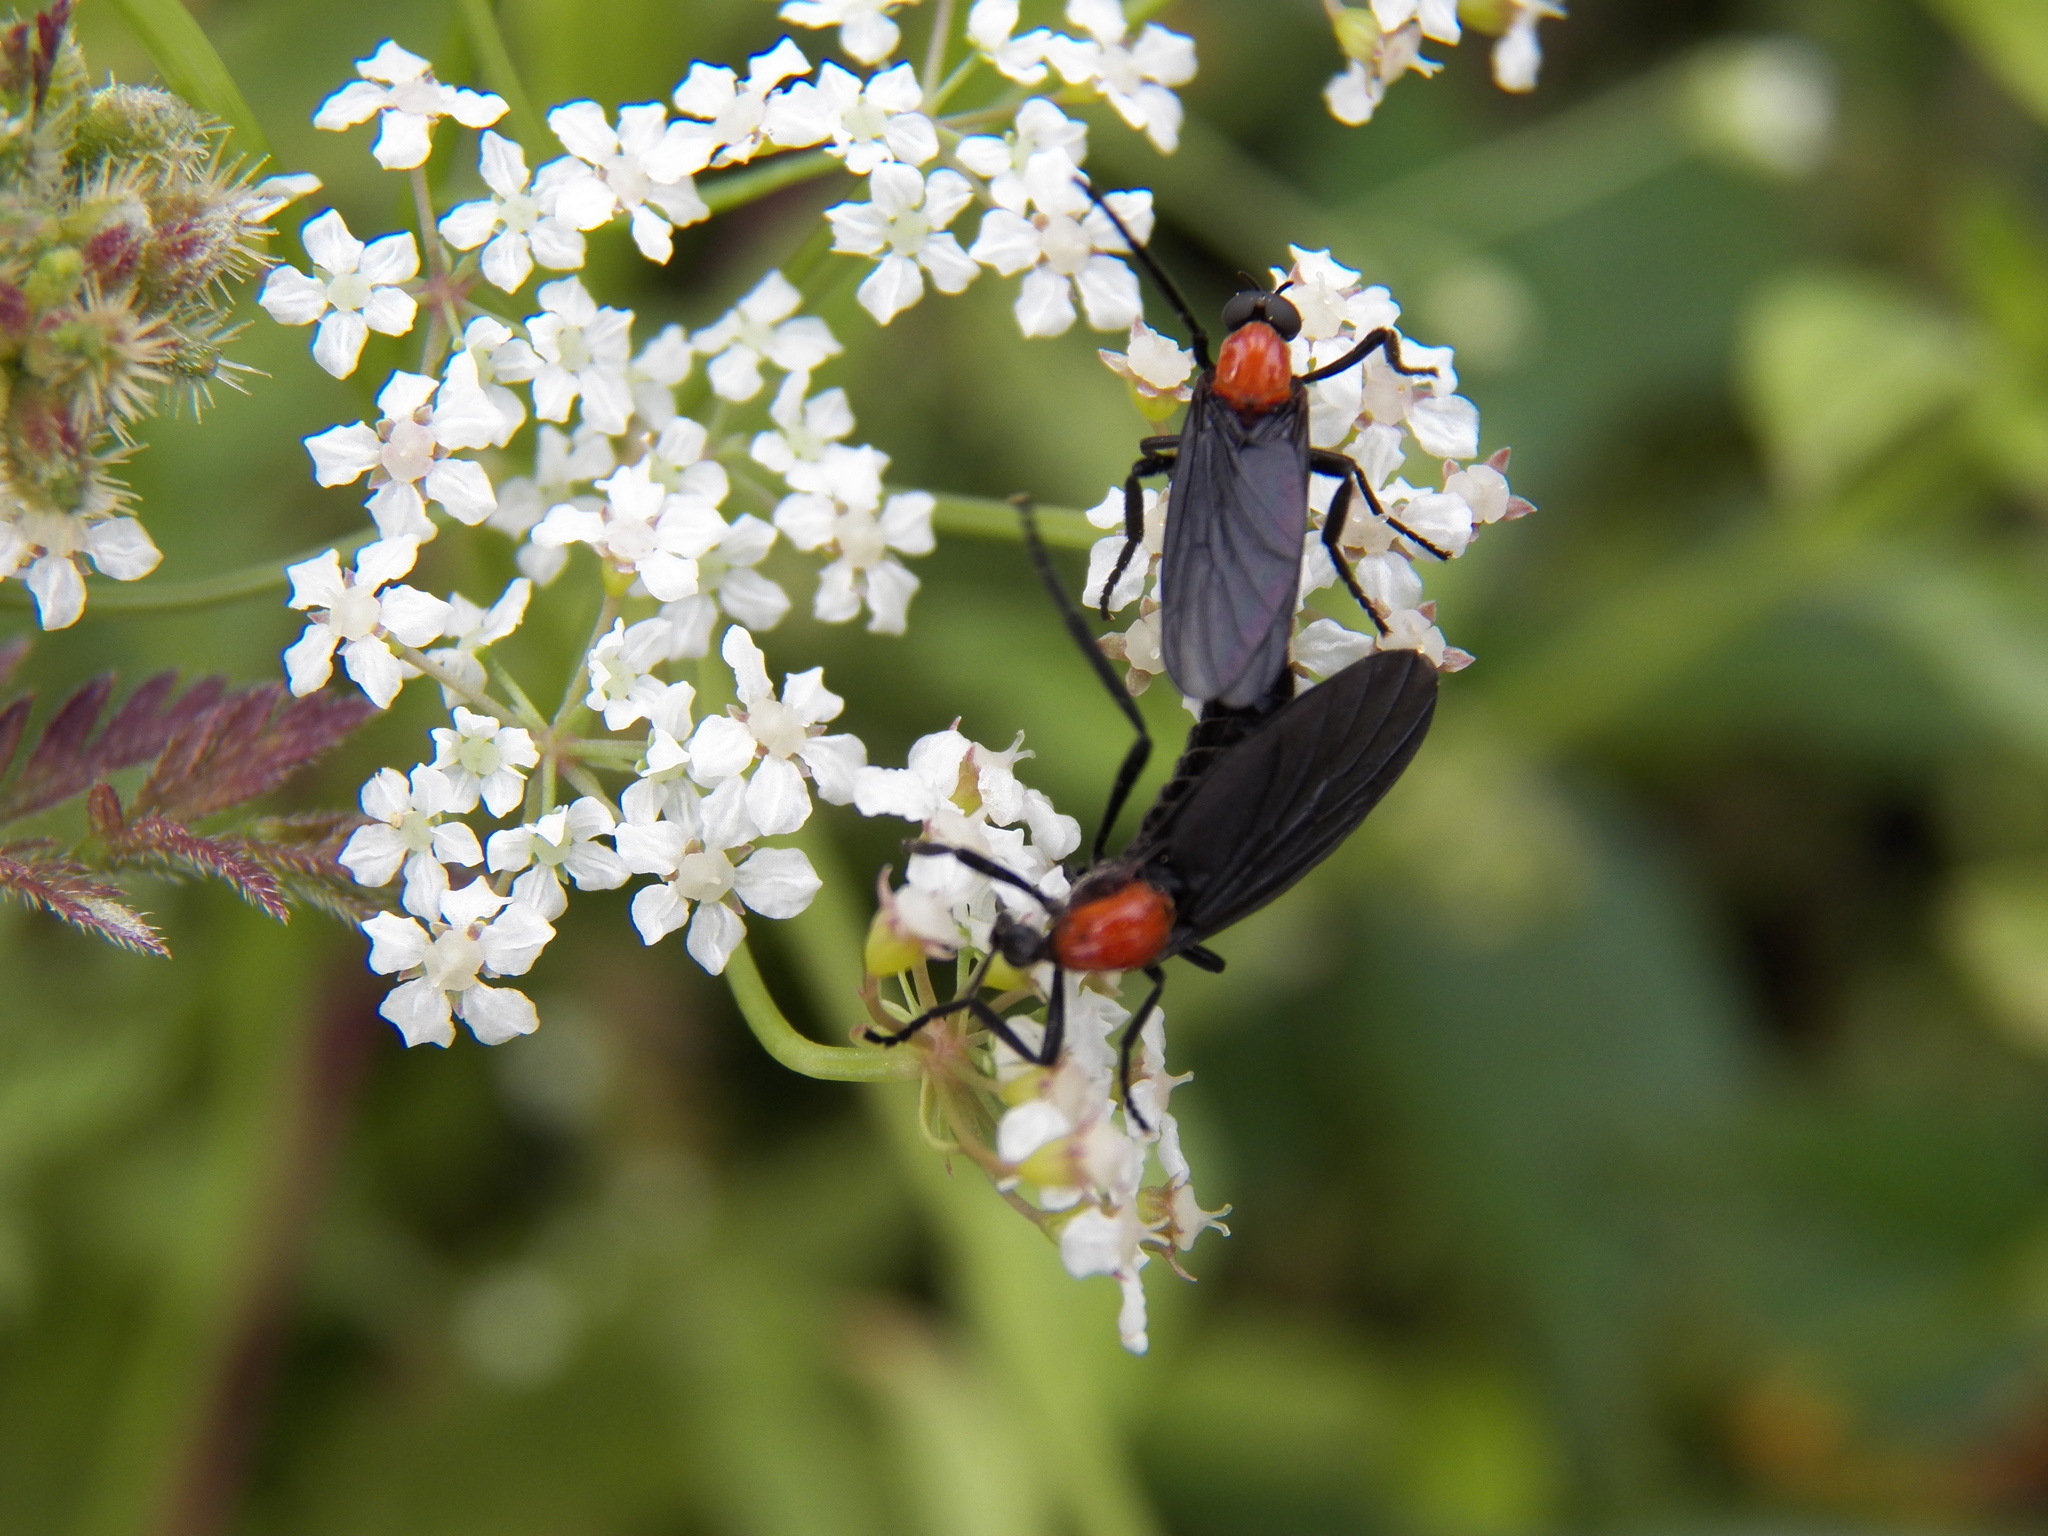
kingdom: Animalia
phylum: Arthropoda
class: Insecta
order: Diptera
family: Bibionidae
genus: Plecia
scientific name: Plecia nearctica
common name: March fly
